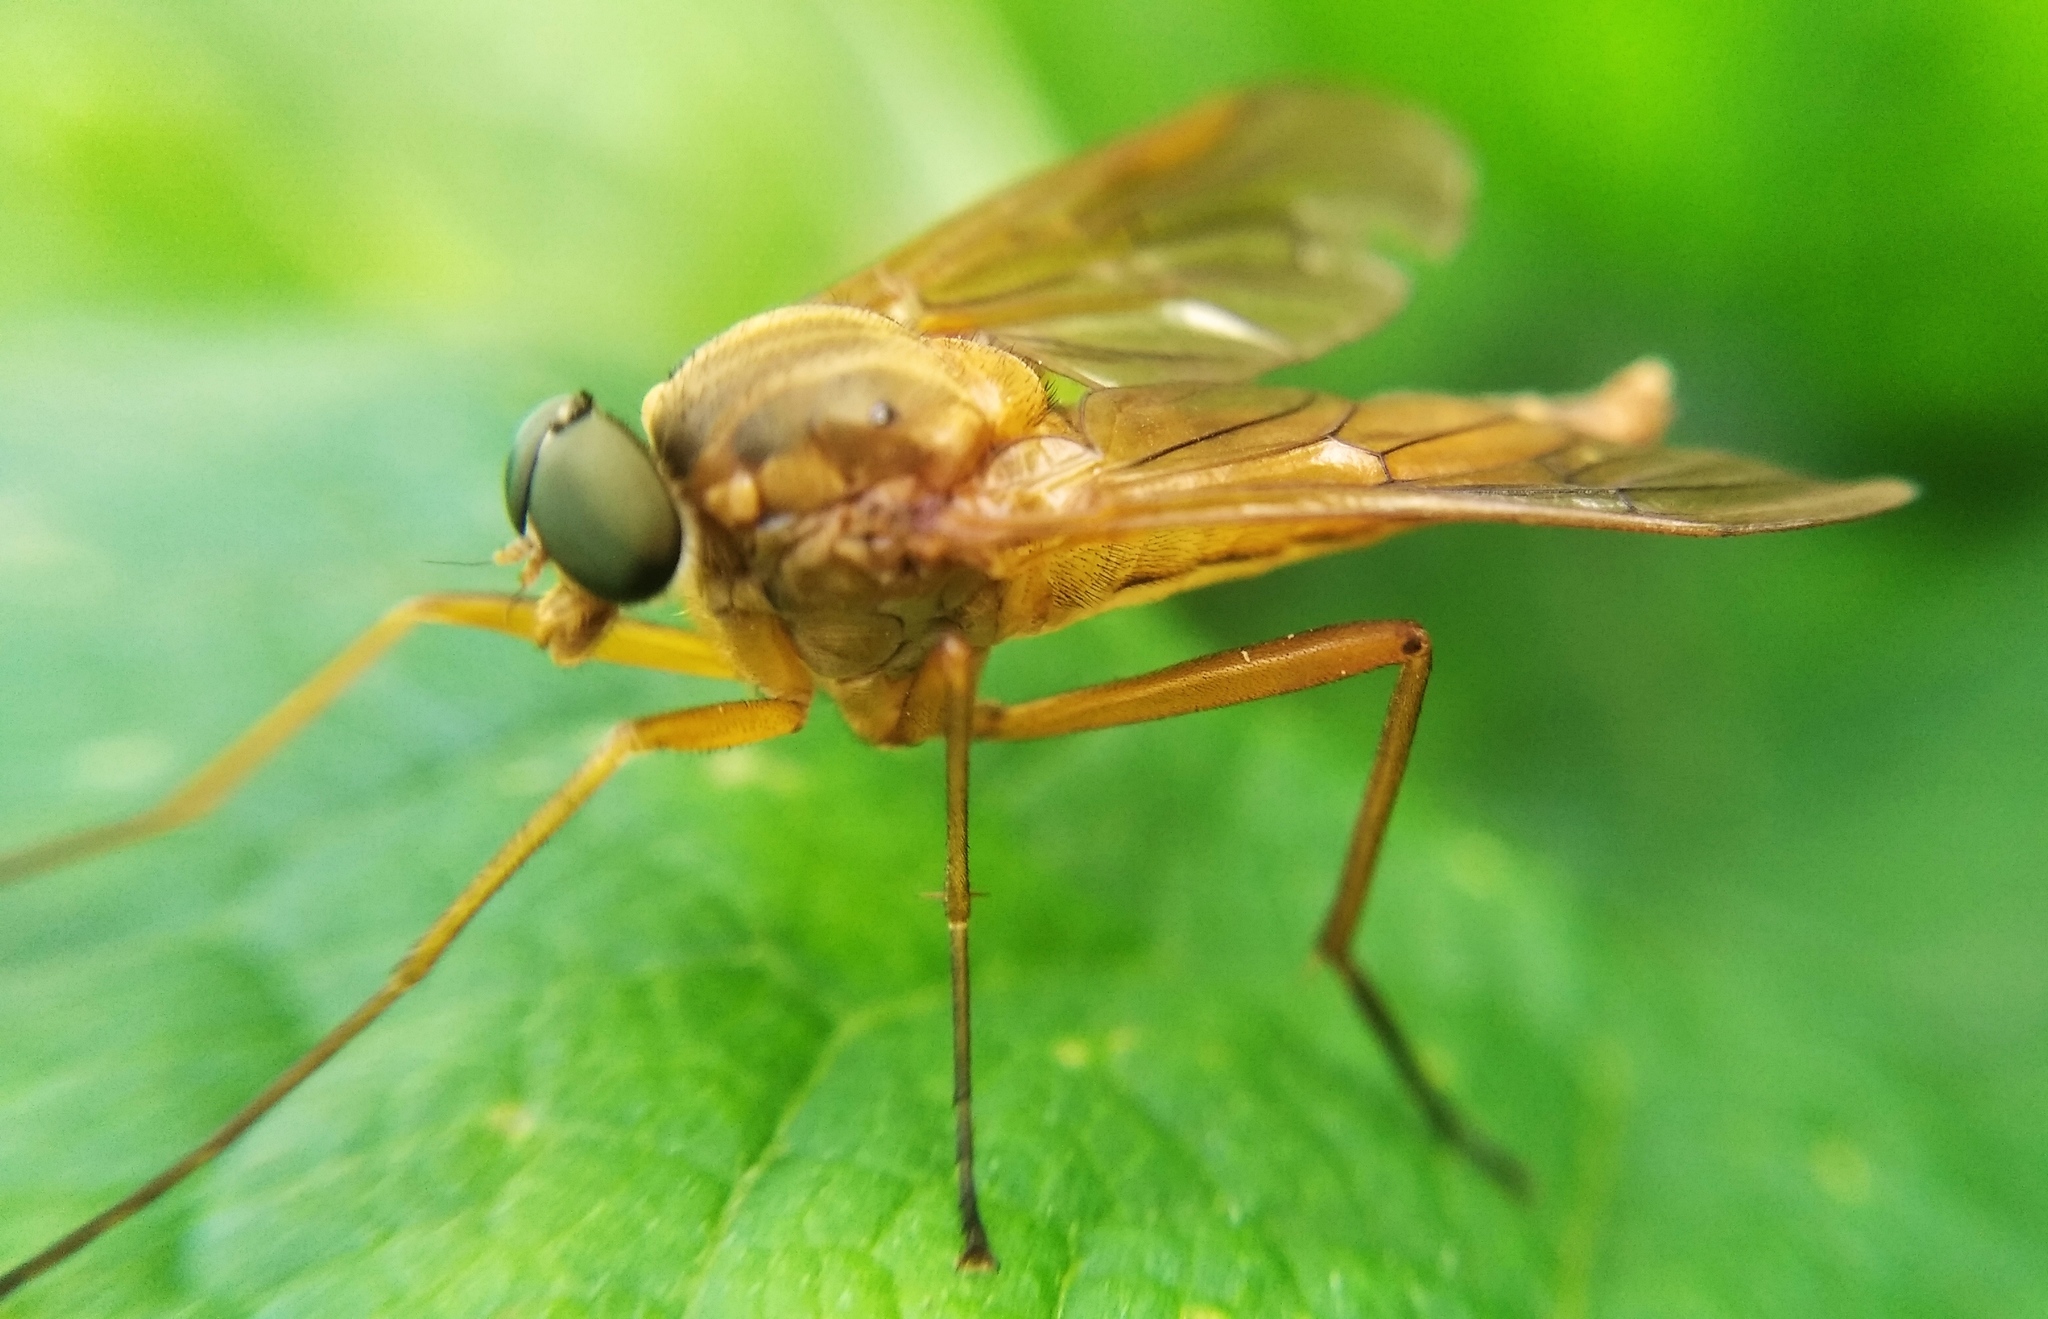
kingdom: Animalia
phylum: Arthropoda
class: Insecta
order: Diptera
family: Rhagionidae
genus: Rhagio
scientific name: Rhagio tringaria
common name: Marsh snipefly
